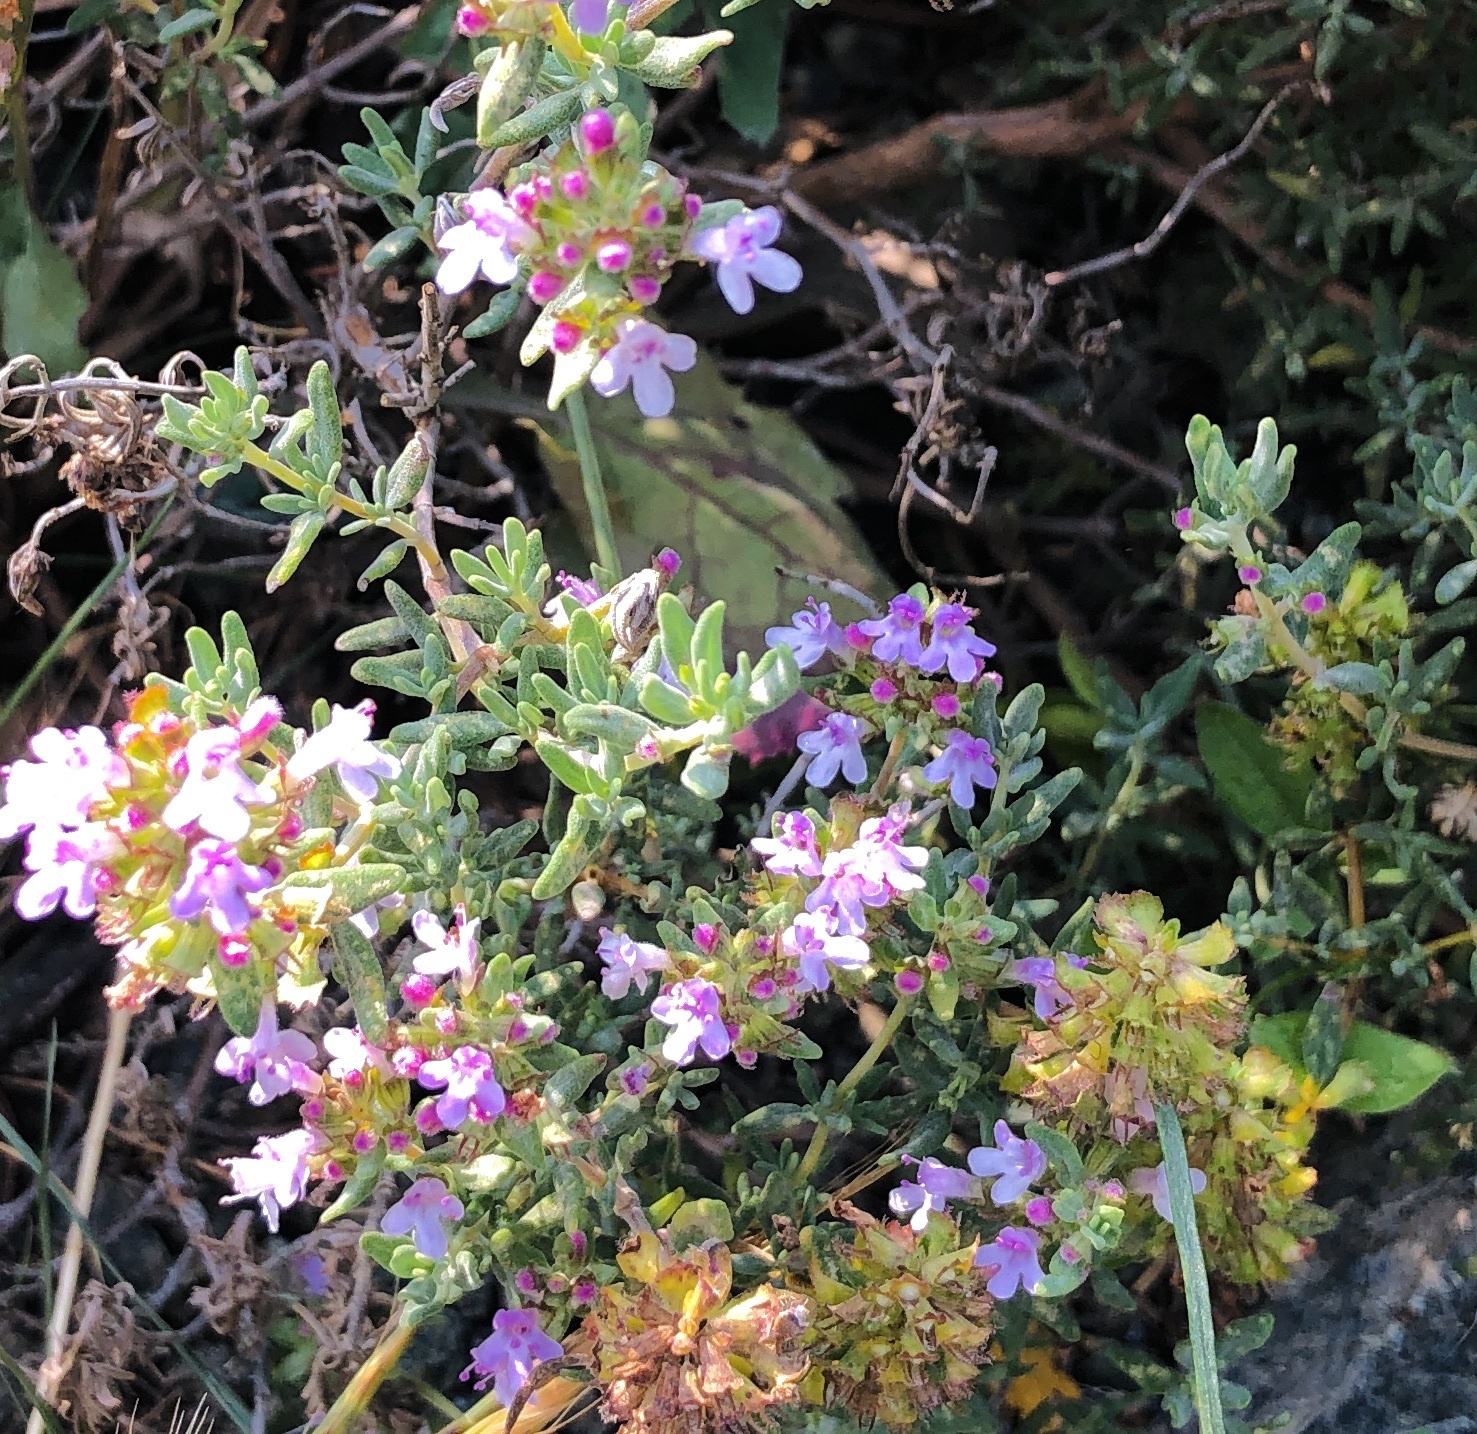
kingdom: Plantae
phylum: Tracheophyta
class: Magnoliopsida
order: Lamiales
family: Lamiaceae
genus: Thymus
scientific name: Thymus vulgaris
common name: Garden thyme
